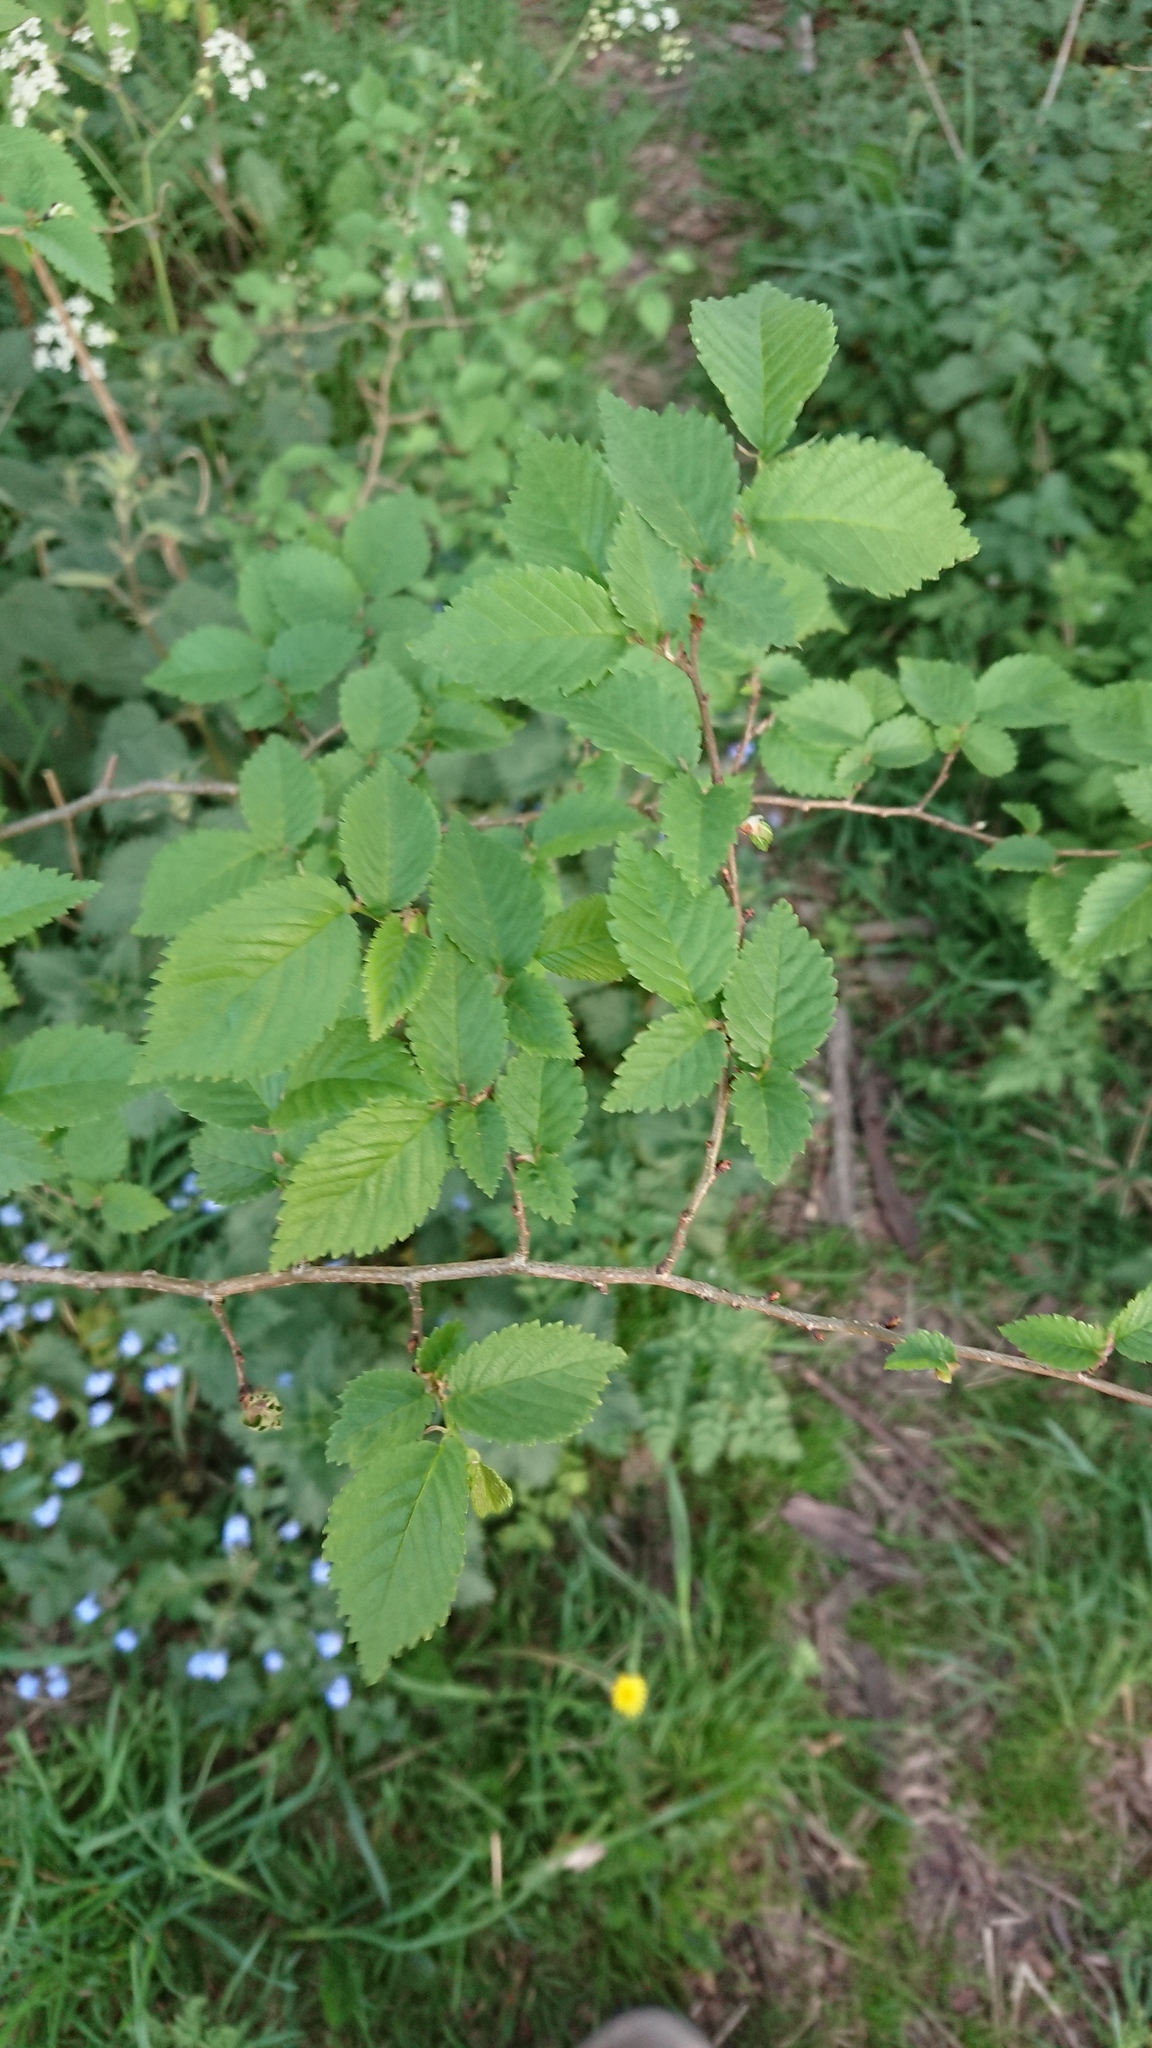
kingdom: Plantae
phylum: Tracheophyta
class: Magnoliopsida
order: Rosales
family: Ulmaceae
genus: Ulmus
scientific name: Ulmus minor
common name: Small-leaved elm
